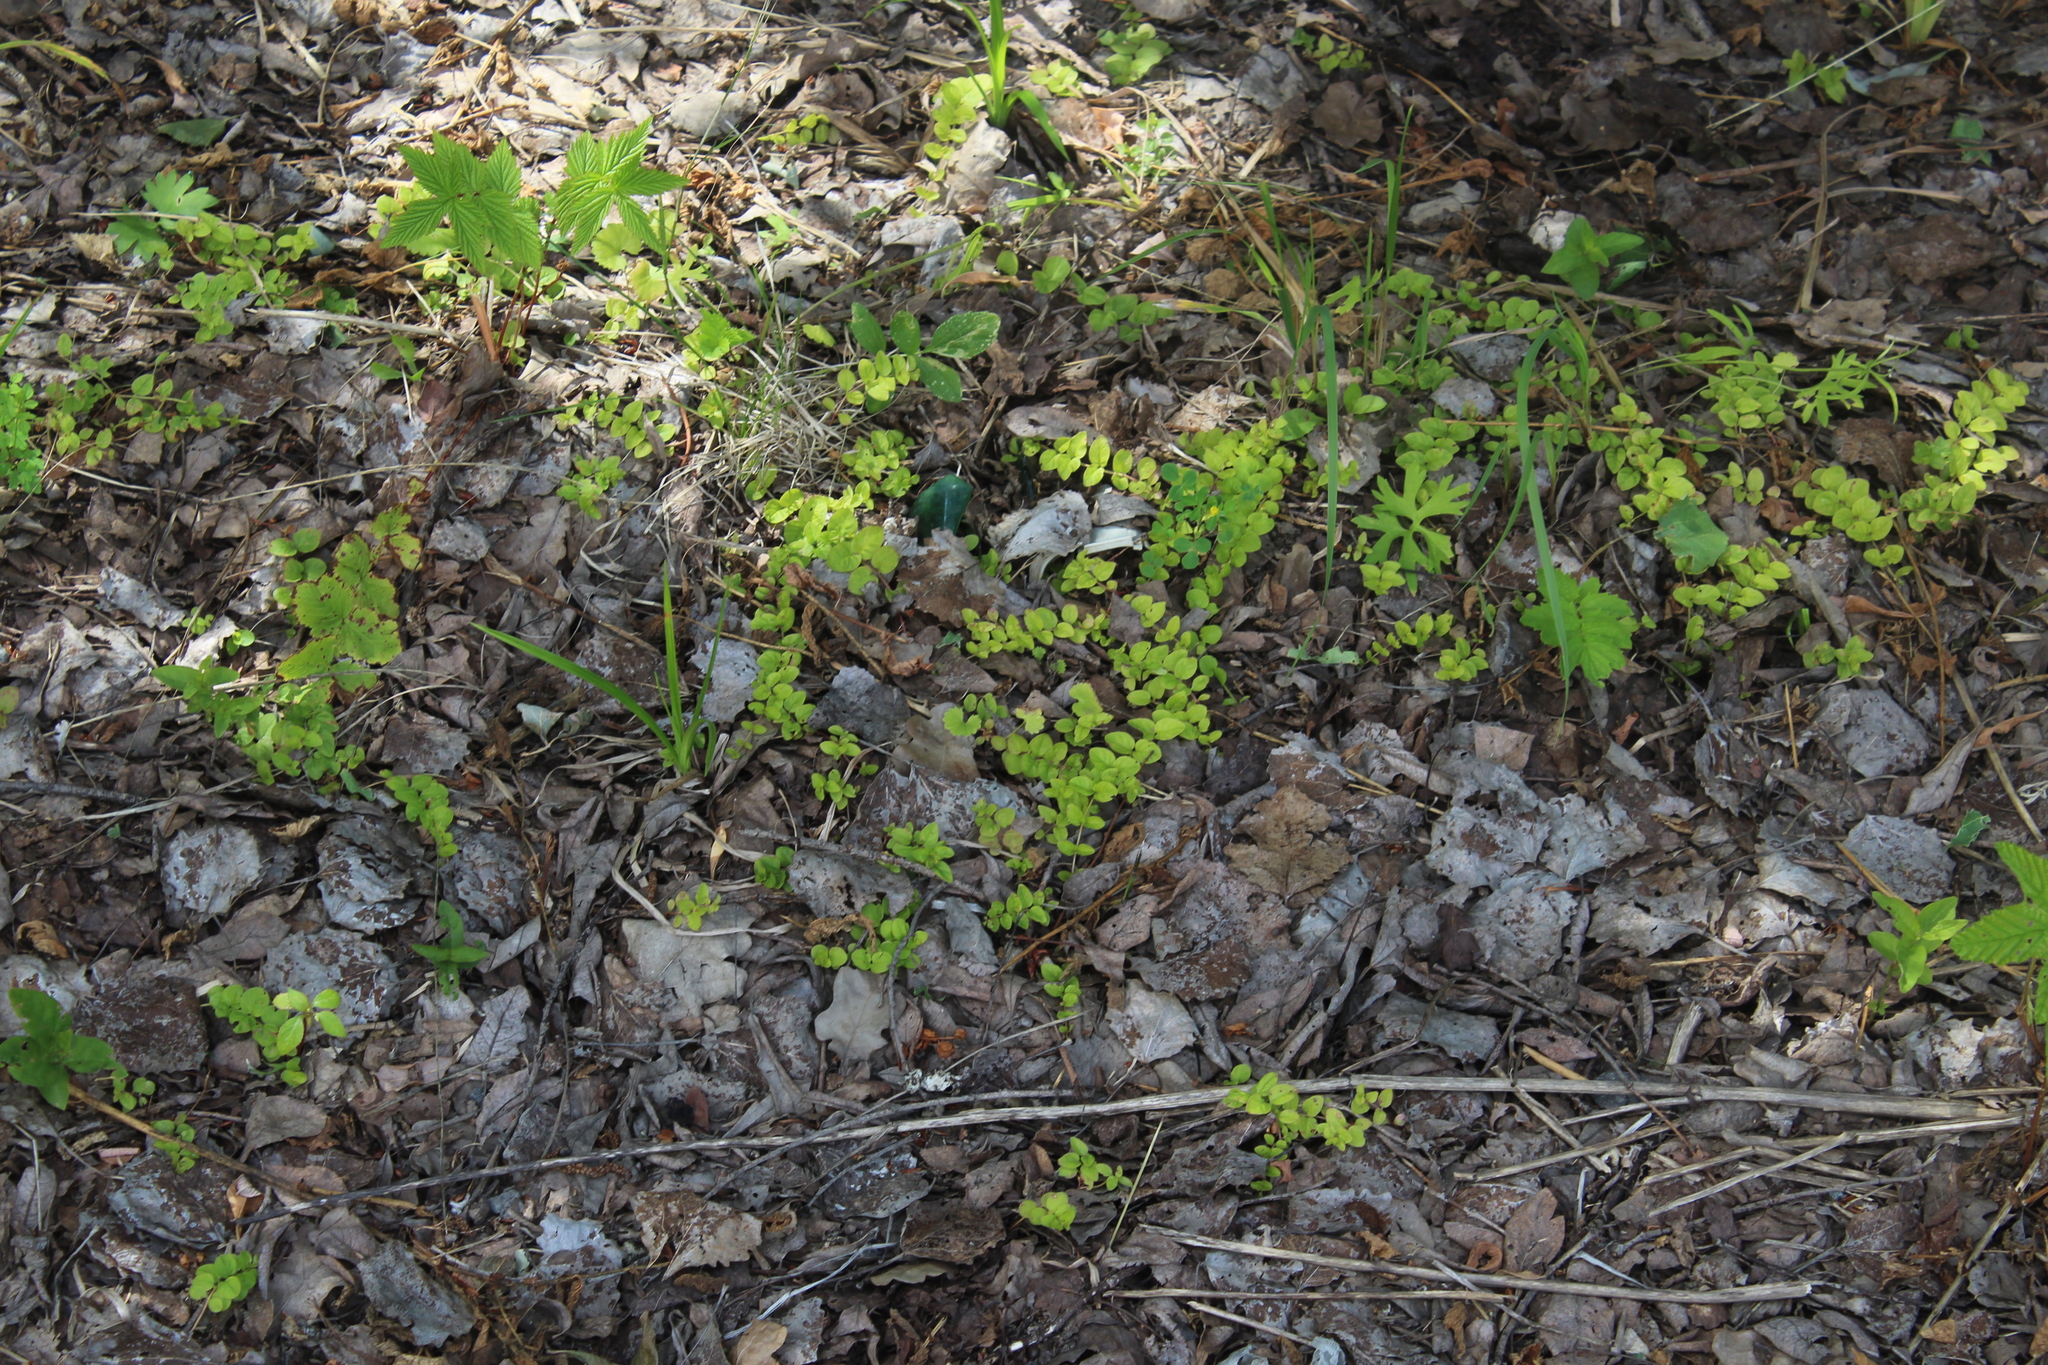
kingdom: Plantae
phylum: Tracheophyta
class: Magnoliopsida
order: Ericales
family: Primulaceae
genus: Lysimachia
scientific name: Lysimachia nummularia
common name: Moneywort
